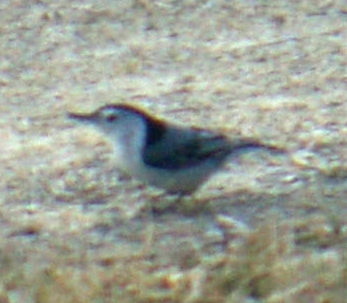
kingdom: Animalia
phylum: Chordata
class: Aves
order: Passeriformes
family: Sittidae
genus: Sitta
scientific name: Sitta carolinensis
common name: White-breasted nuthatch
